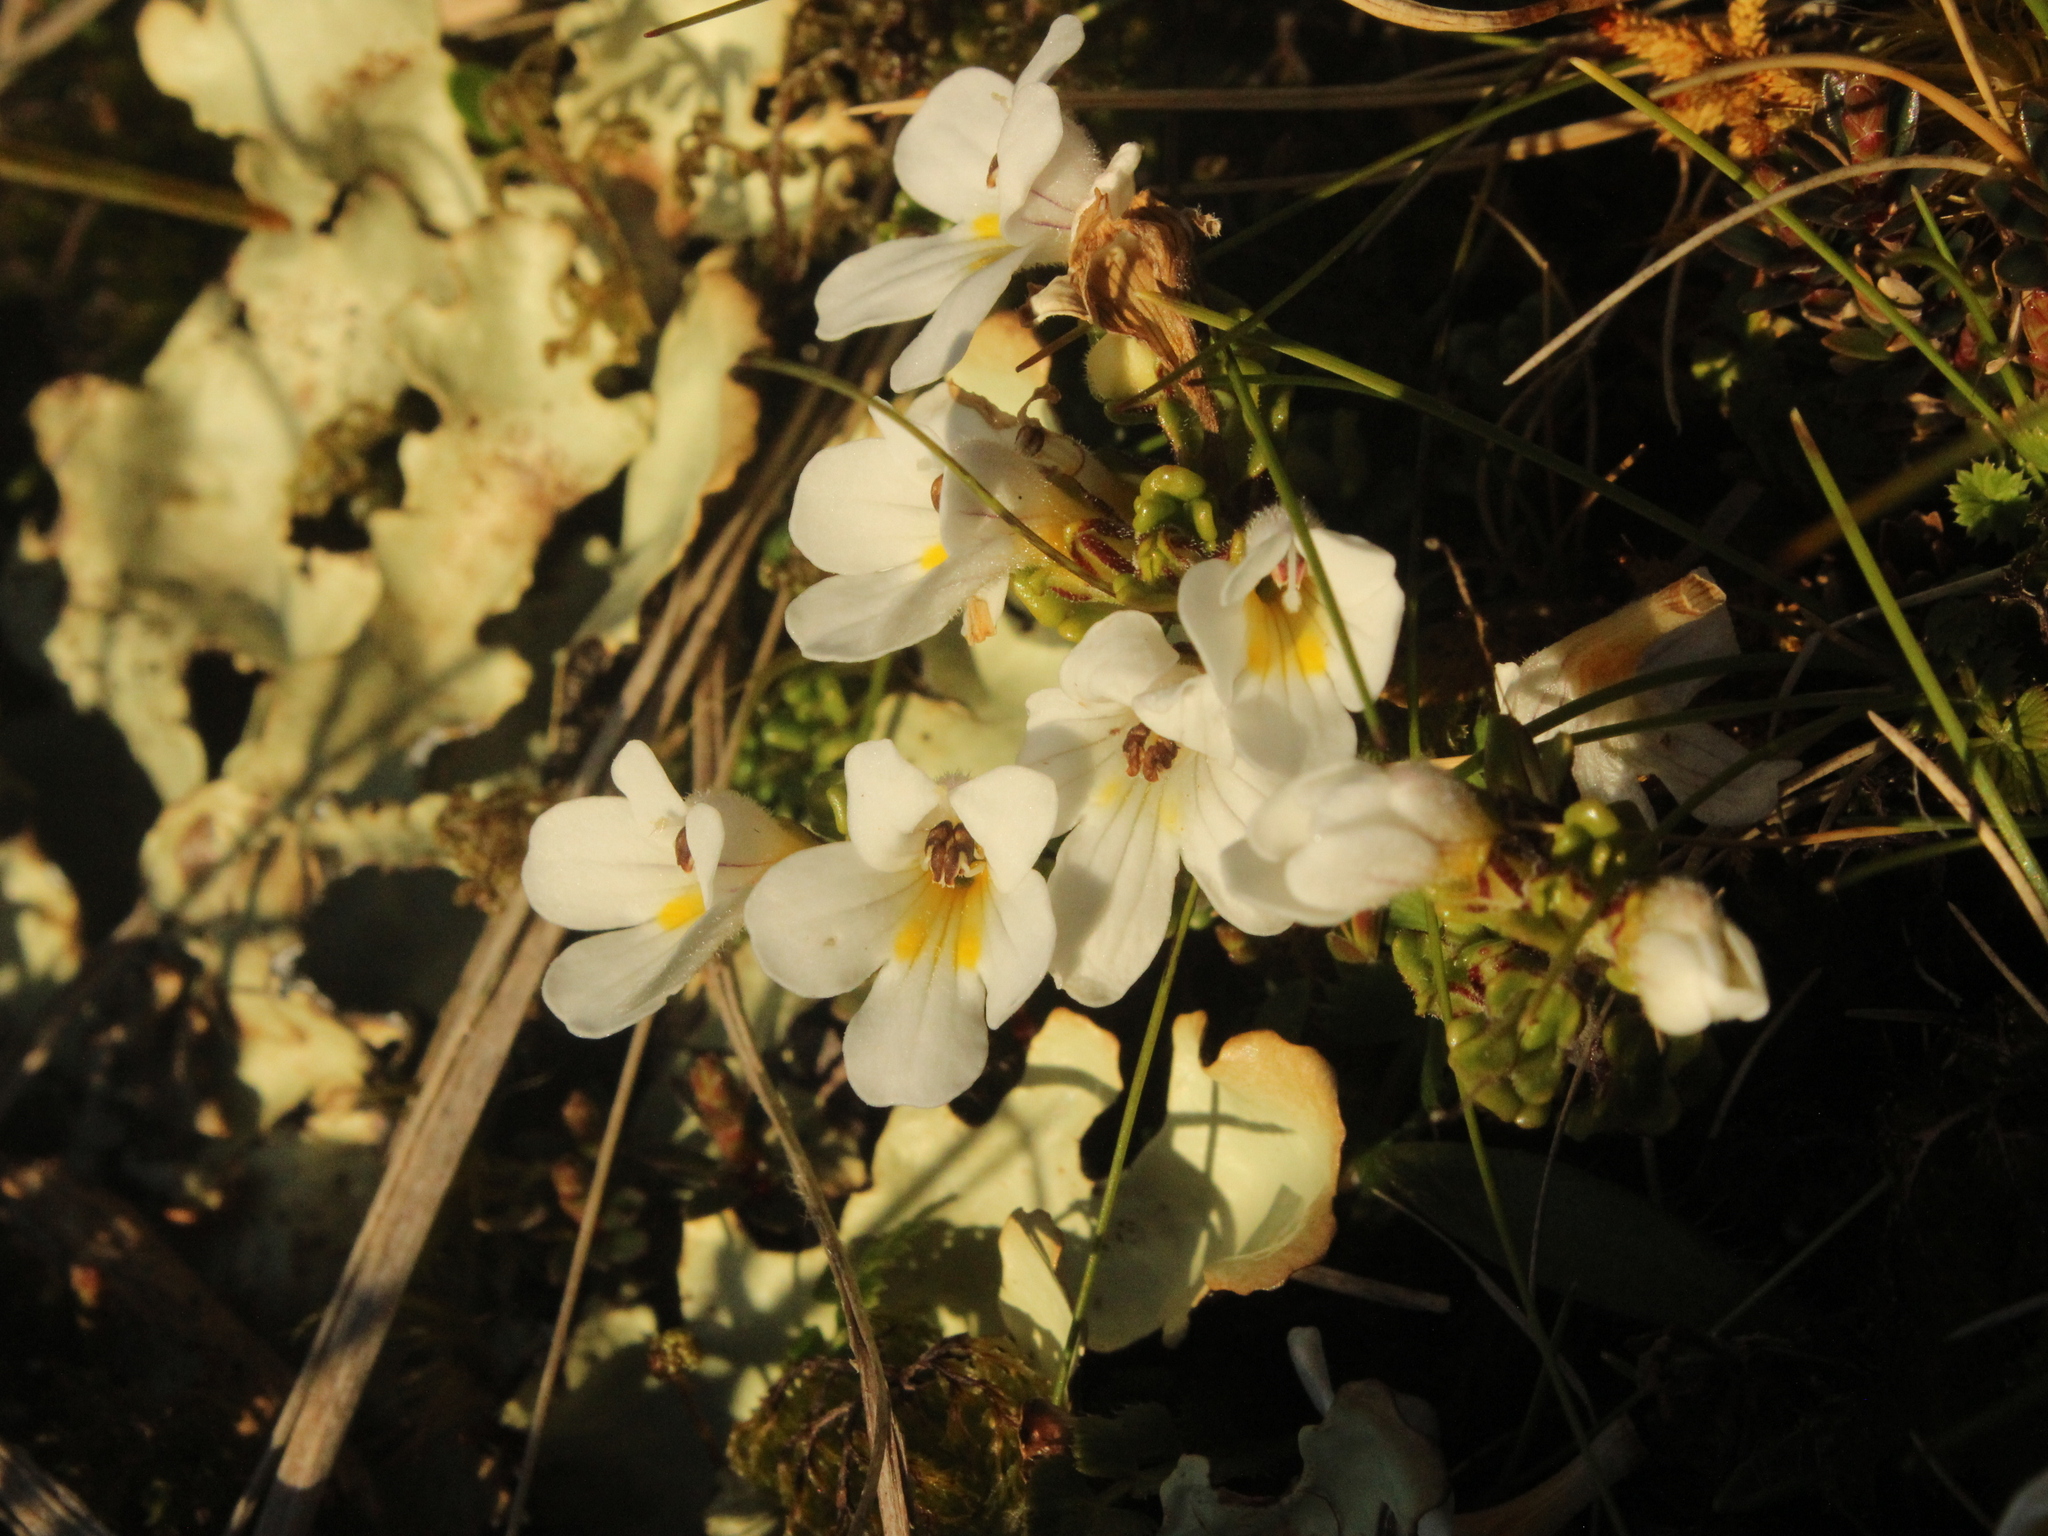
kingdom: Plantae
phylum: Tracheophyta
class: Magnoliopsida
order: Lamiales
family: Orobanchaceae
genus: Euphrasia
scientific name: Euphrasia revoluta
